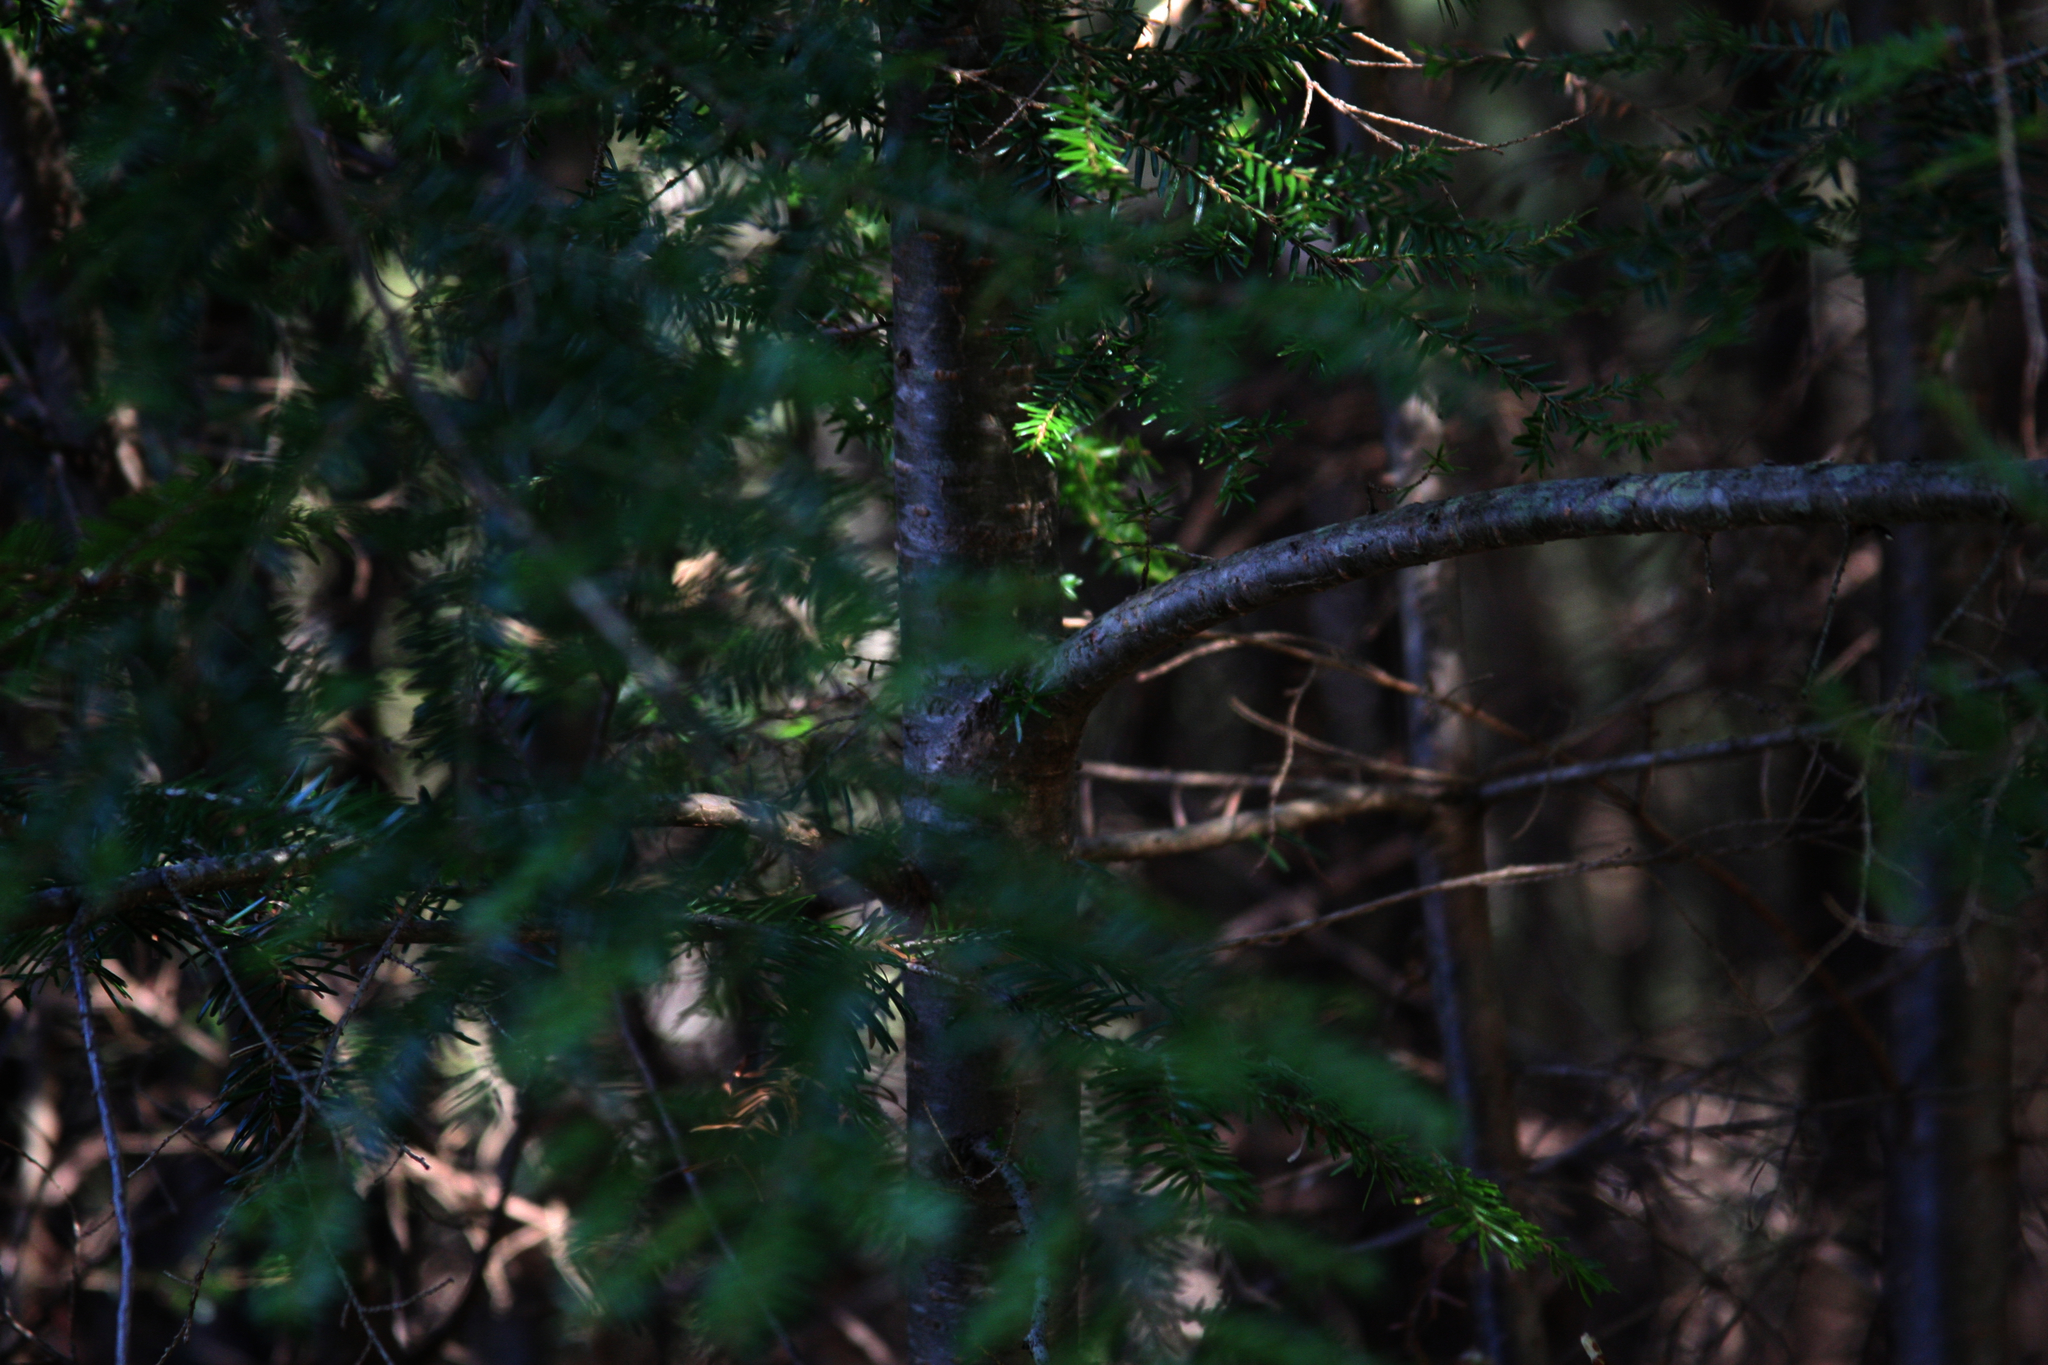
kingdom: Plantae
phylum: Tracheophyta
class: Pinopsida
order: Pinales
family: Pinaceae
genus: Tsuga
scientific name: Tsuga canadensis
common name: Eastern hemlock
